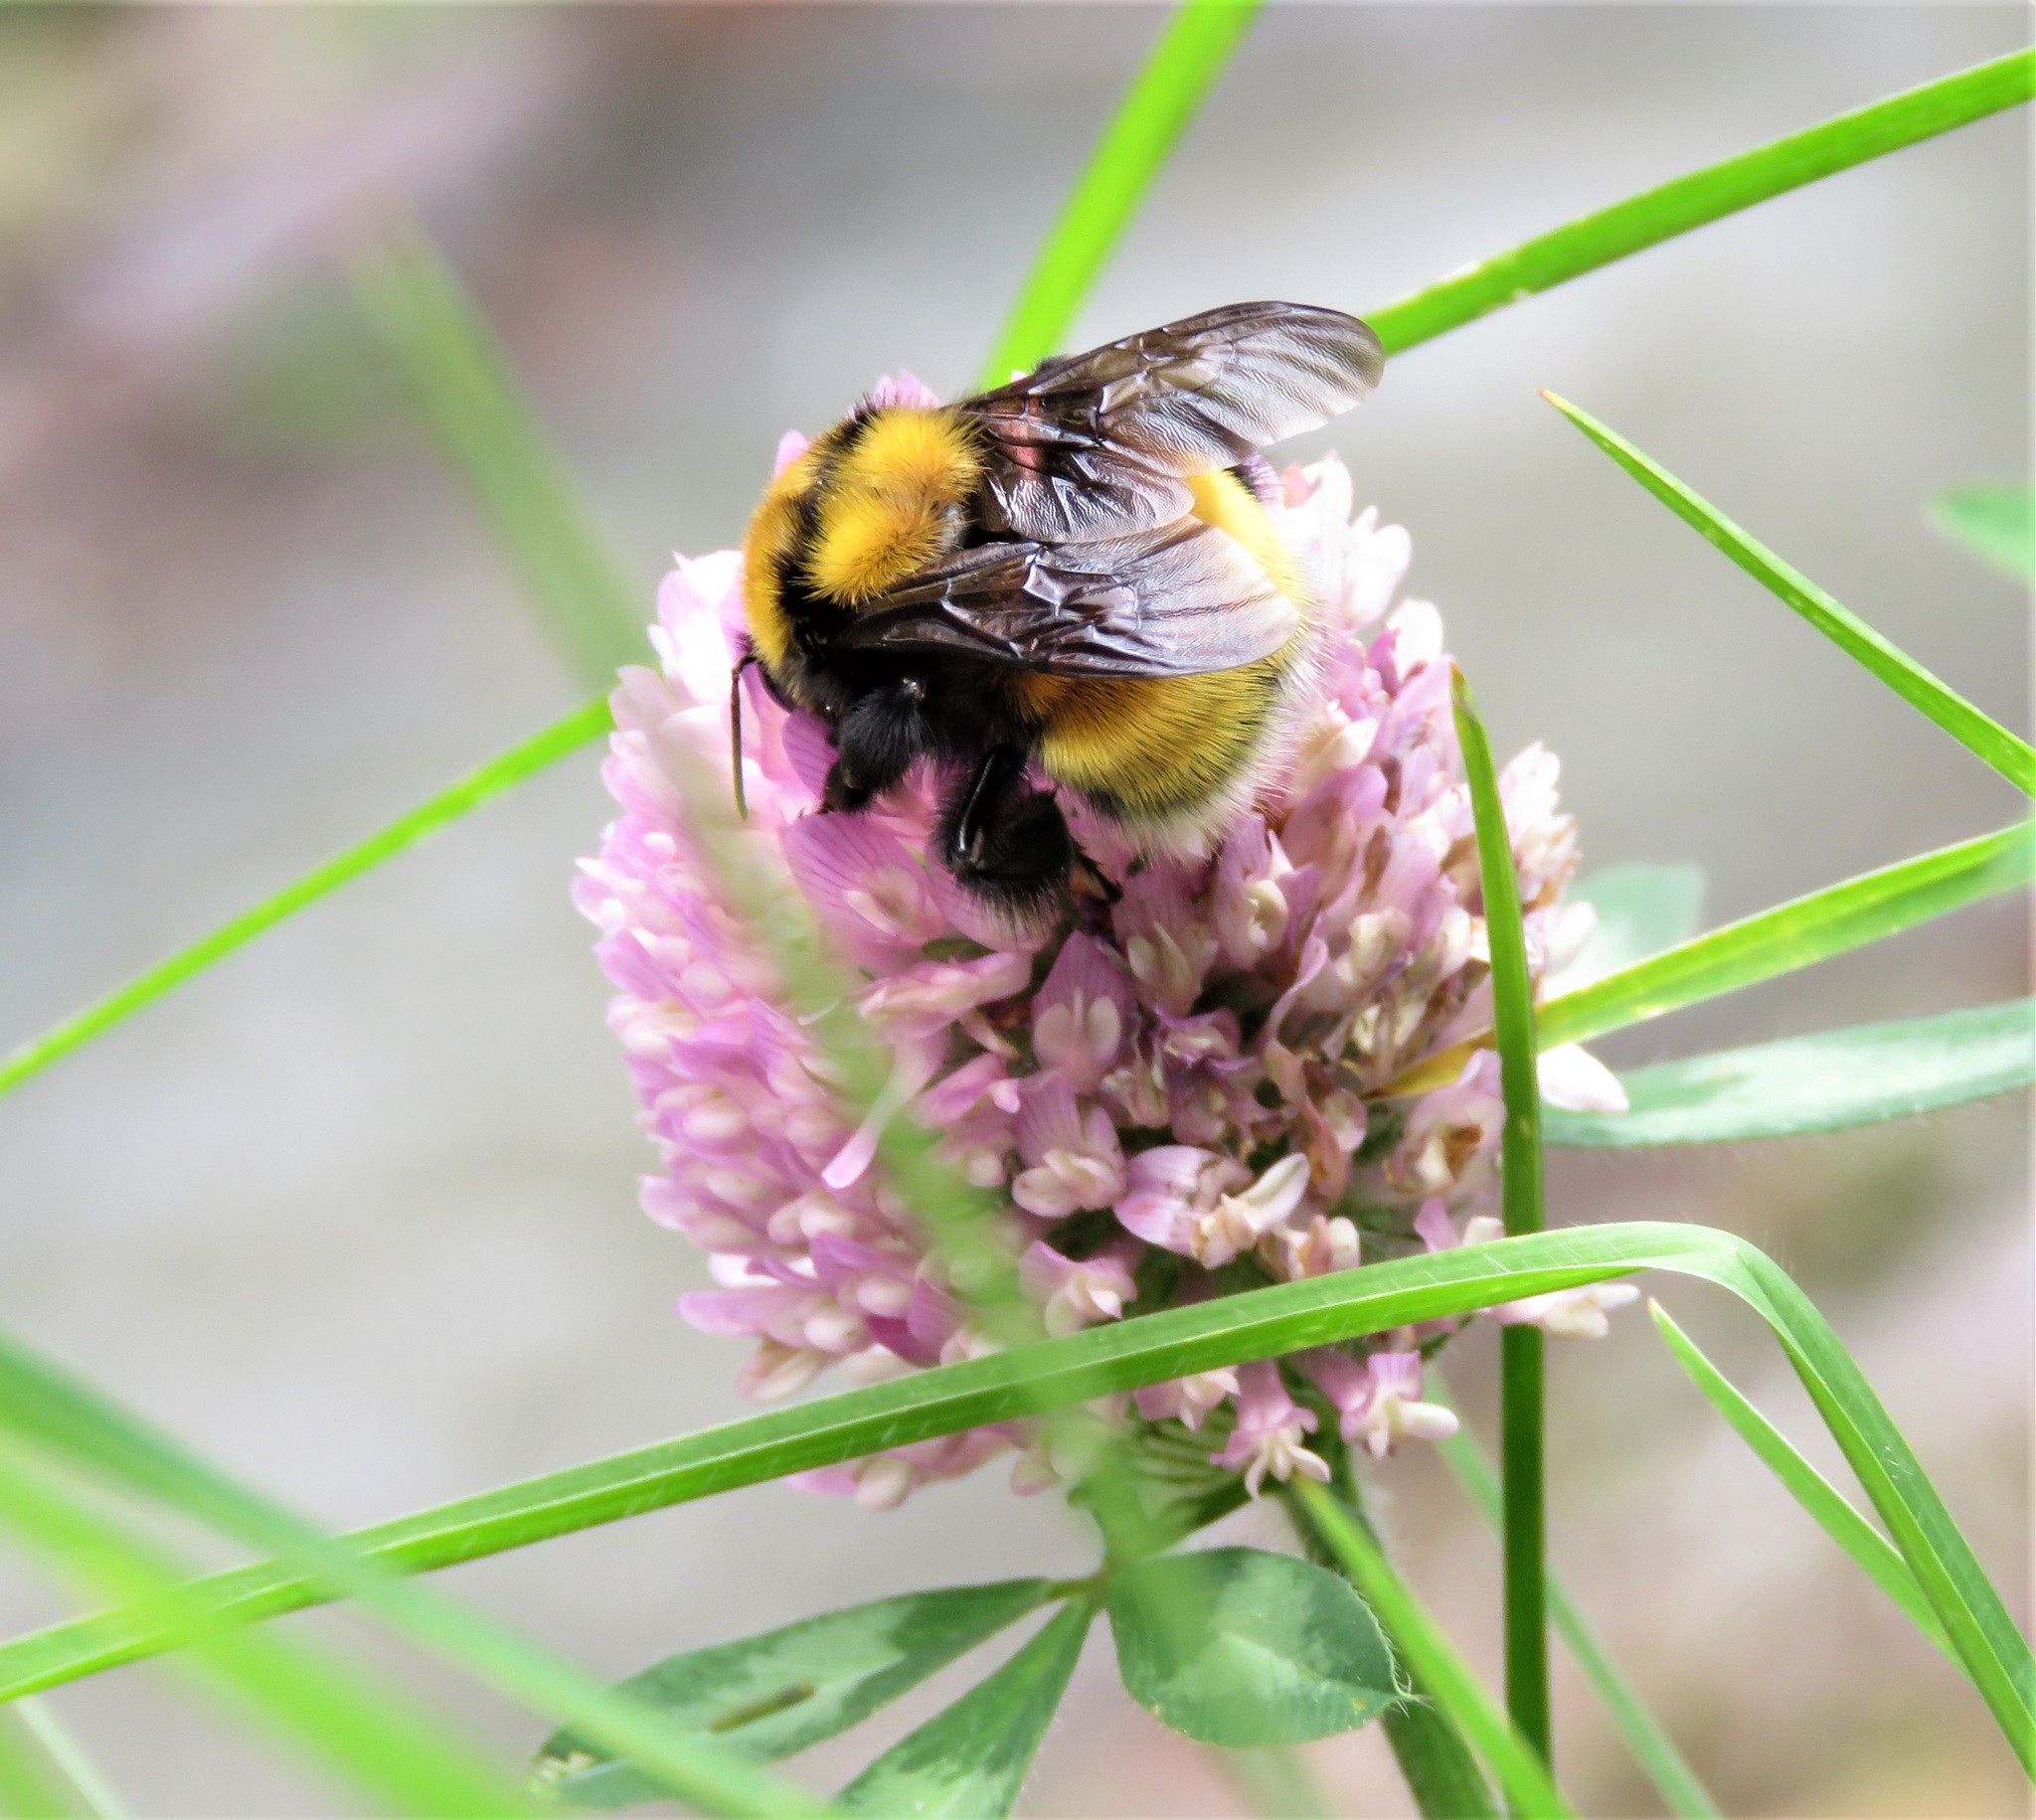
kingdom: Animalia
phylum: Arthropoda
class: Insecta
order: Hymenoptera
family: Apidae
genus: Bombus
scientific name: Bombus hortulanus
